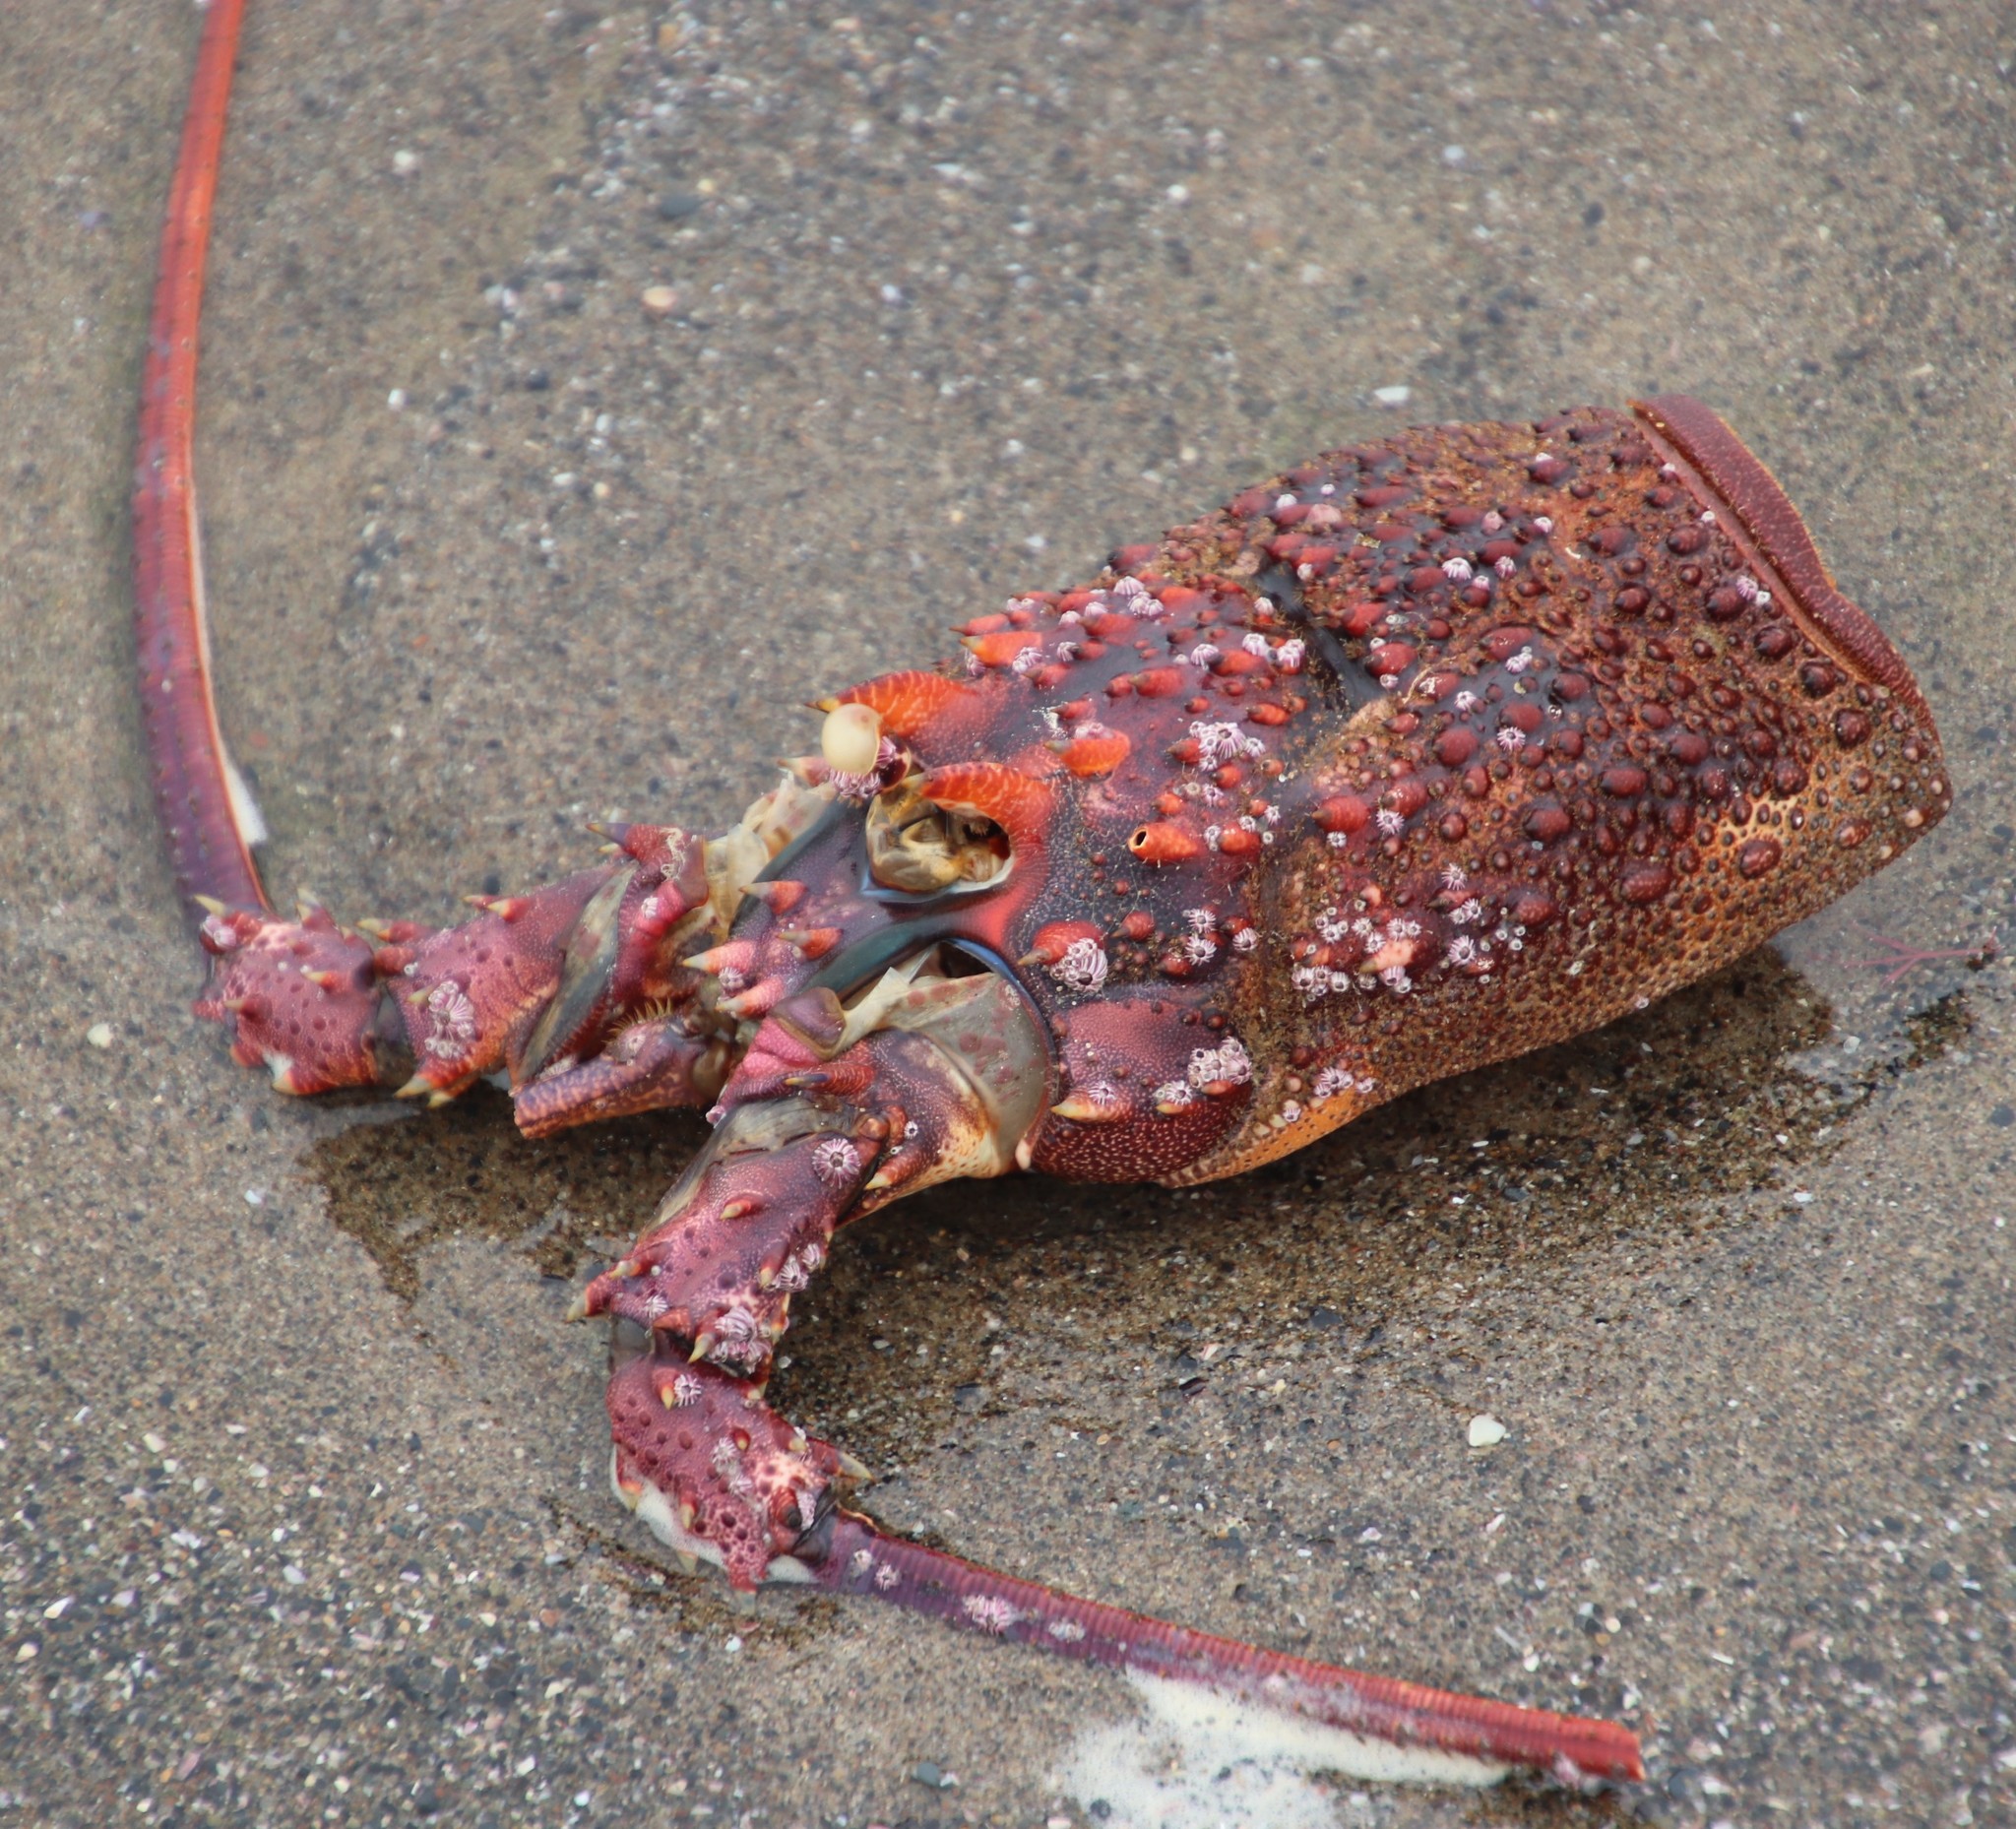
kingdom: Animalia
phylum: Arthropoda
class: Malacostraca
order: Decapoda
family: Palinuridae
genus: Panulirus
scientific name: Panulirus homarus
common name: Scalloped spiny lobster
